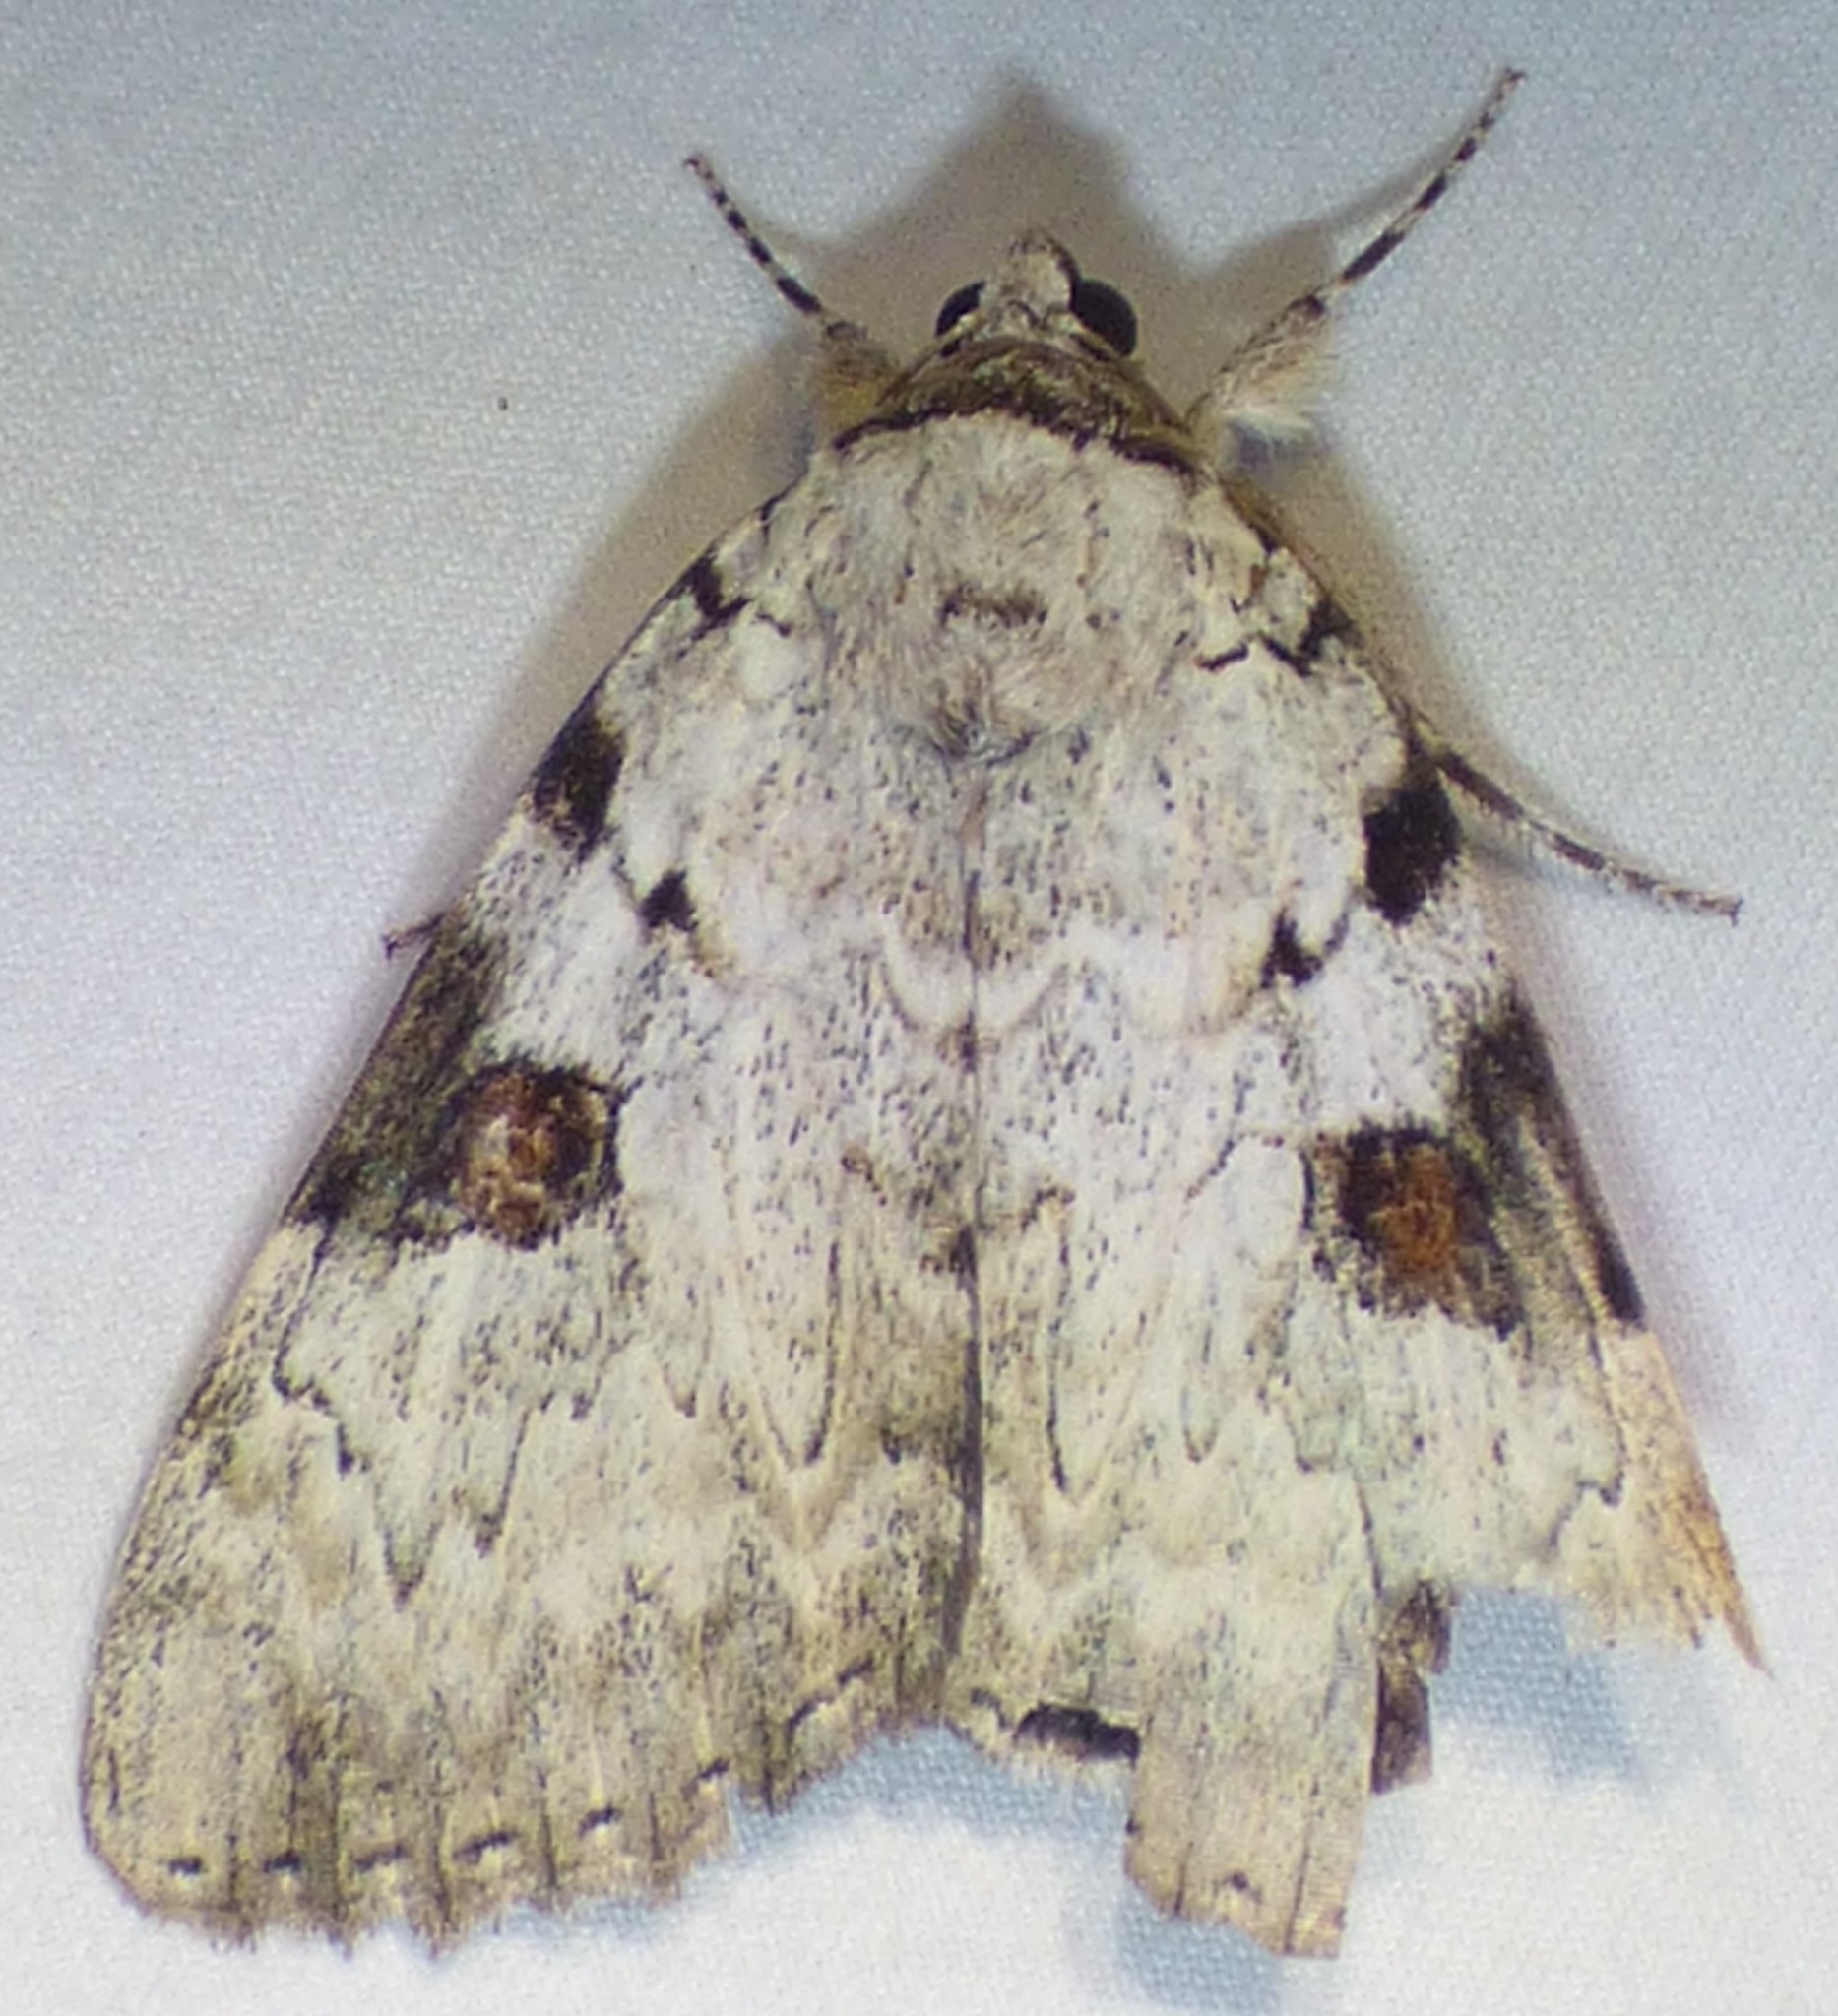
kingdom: Animalia
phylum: Arthropoda
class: Insecta
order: Lepidoptera
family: Erebidae
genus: Catocala
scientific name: Catocala sappho
